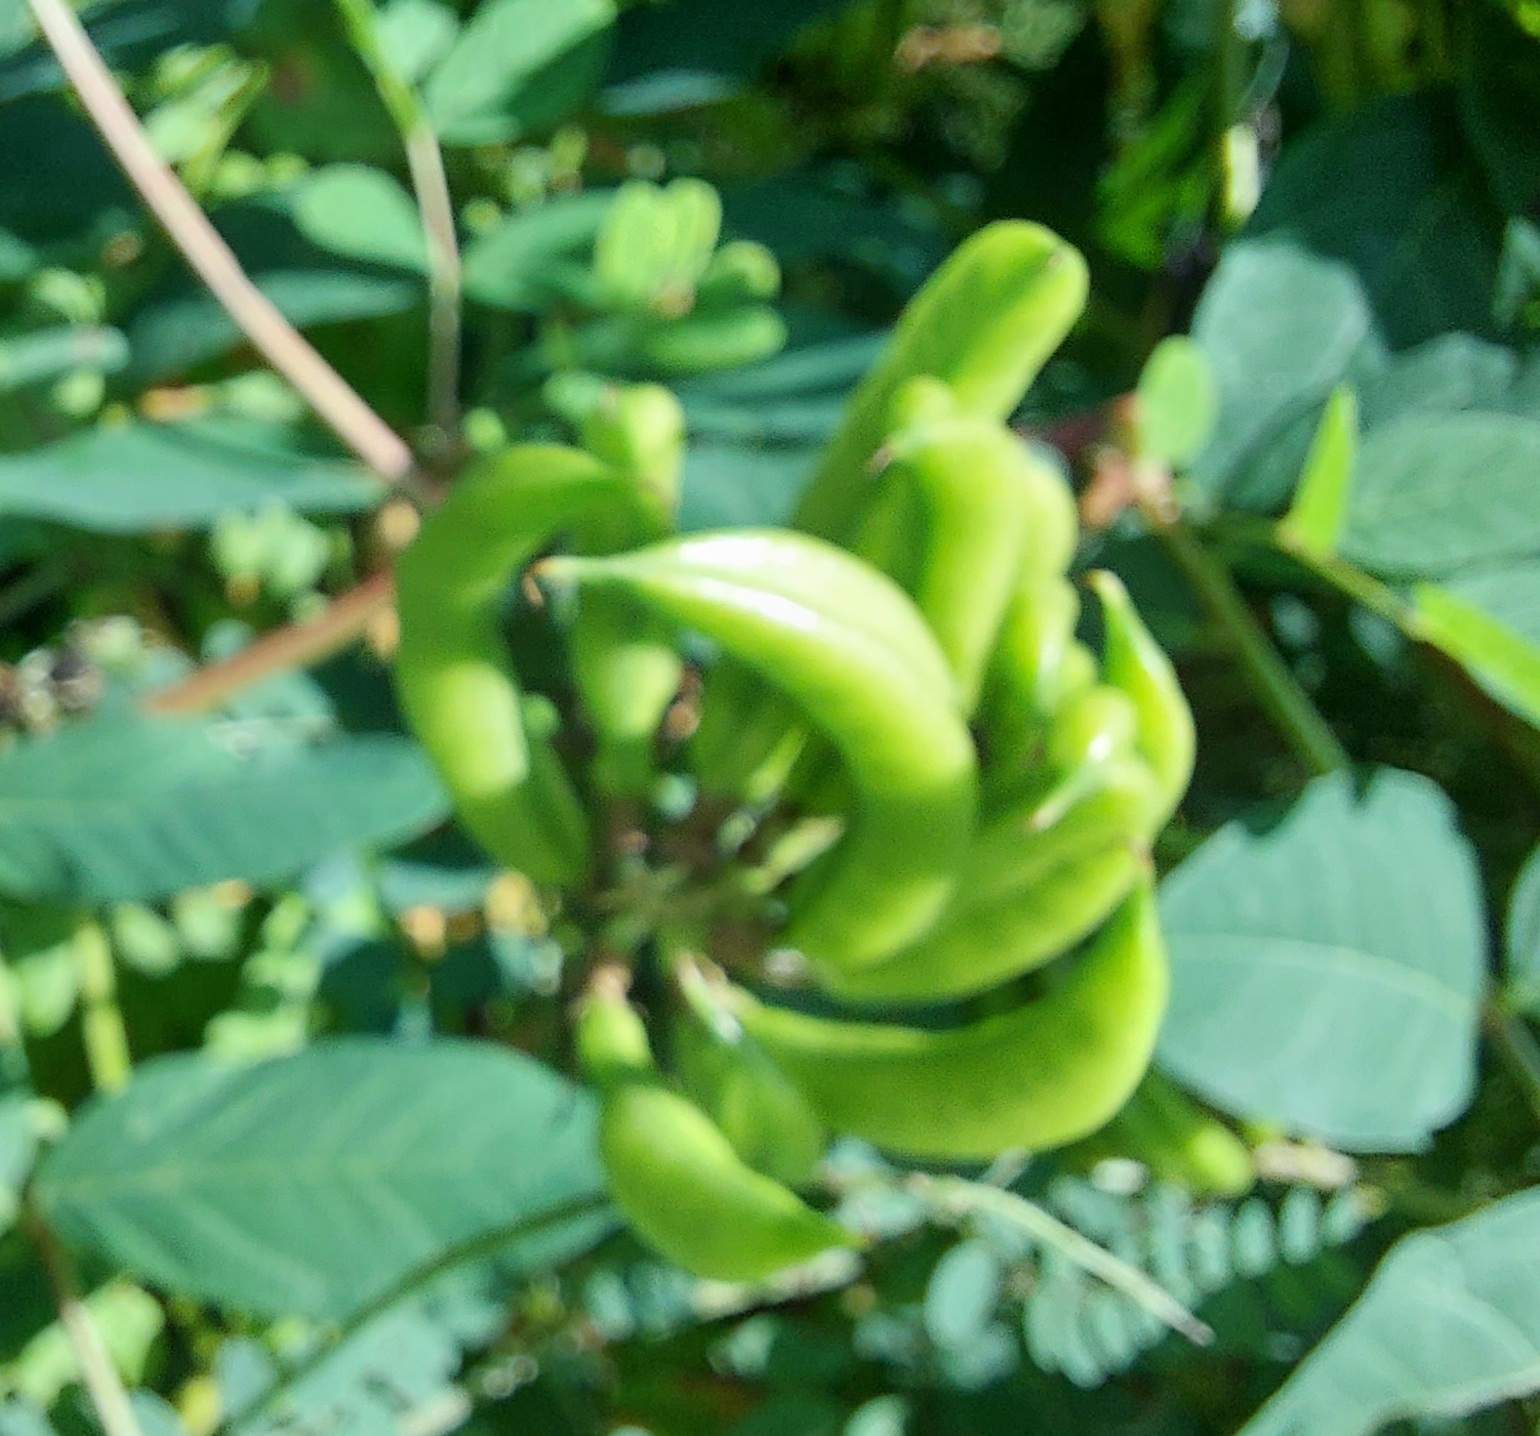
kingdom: Plantae
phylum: Tracheophyta
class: Magnoliopsida
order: Fabales
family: Fabaceae
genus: Astragalus
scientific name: Astragalus glycyphyllos
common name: Wild liquorice
